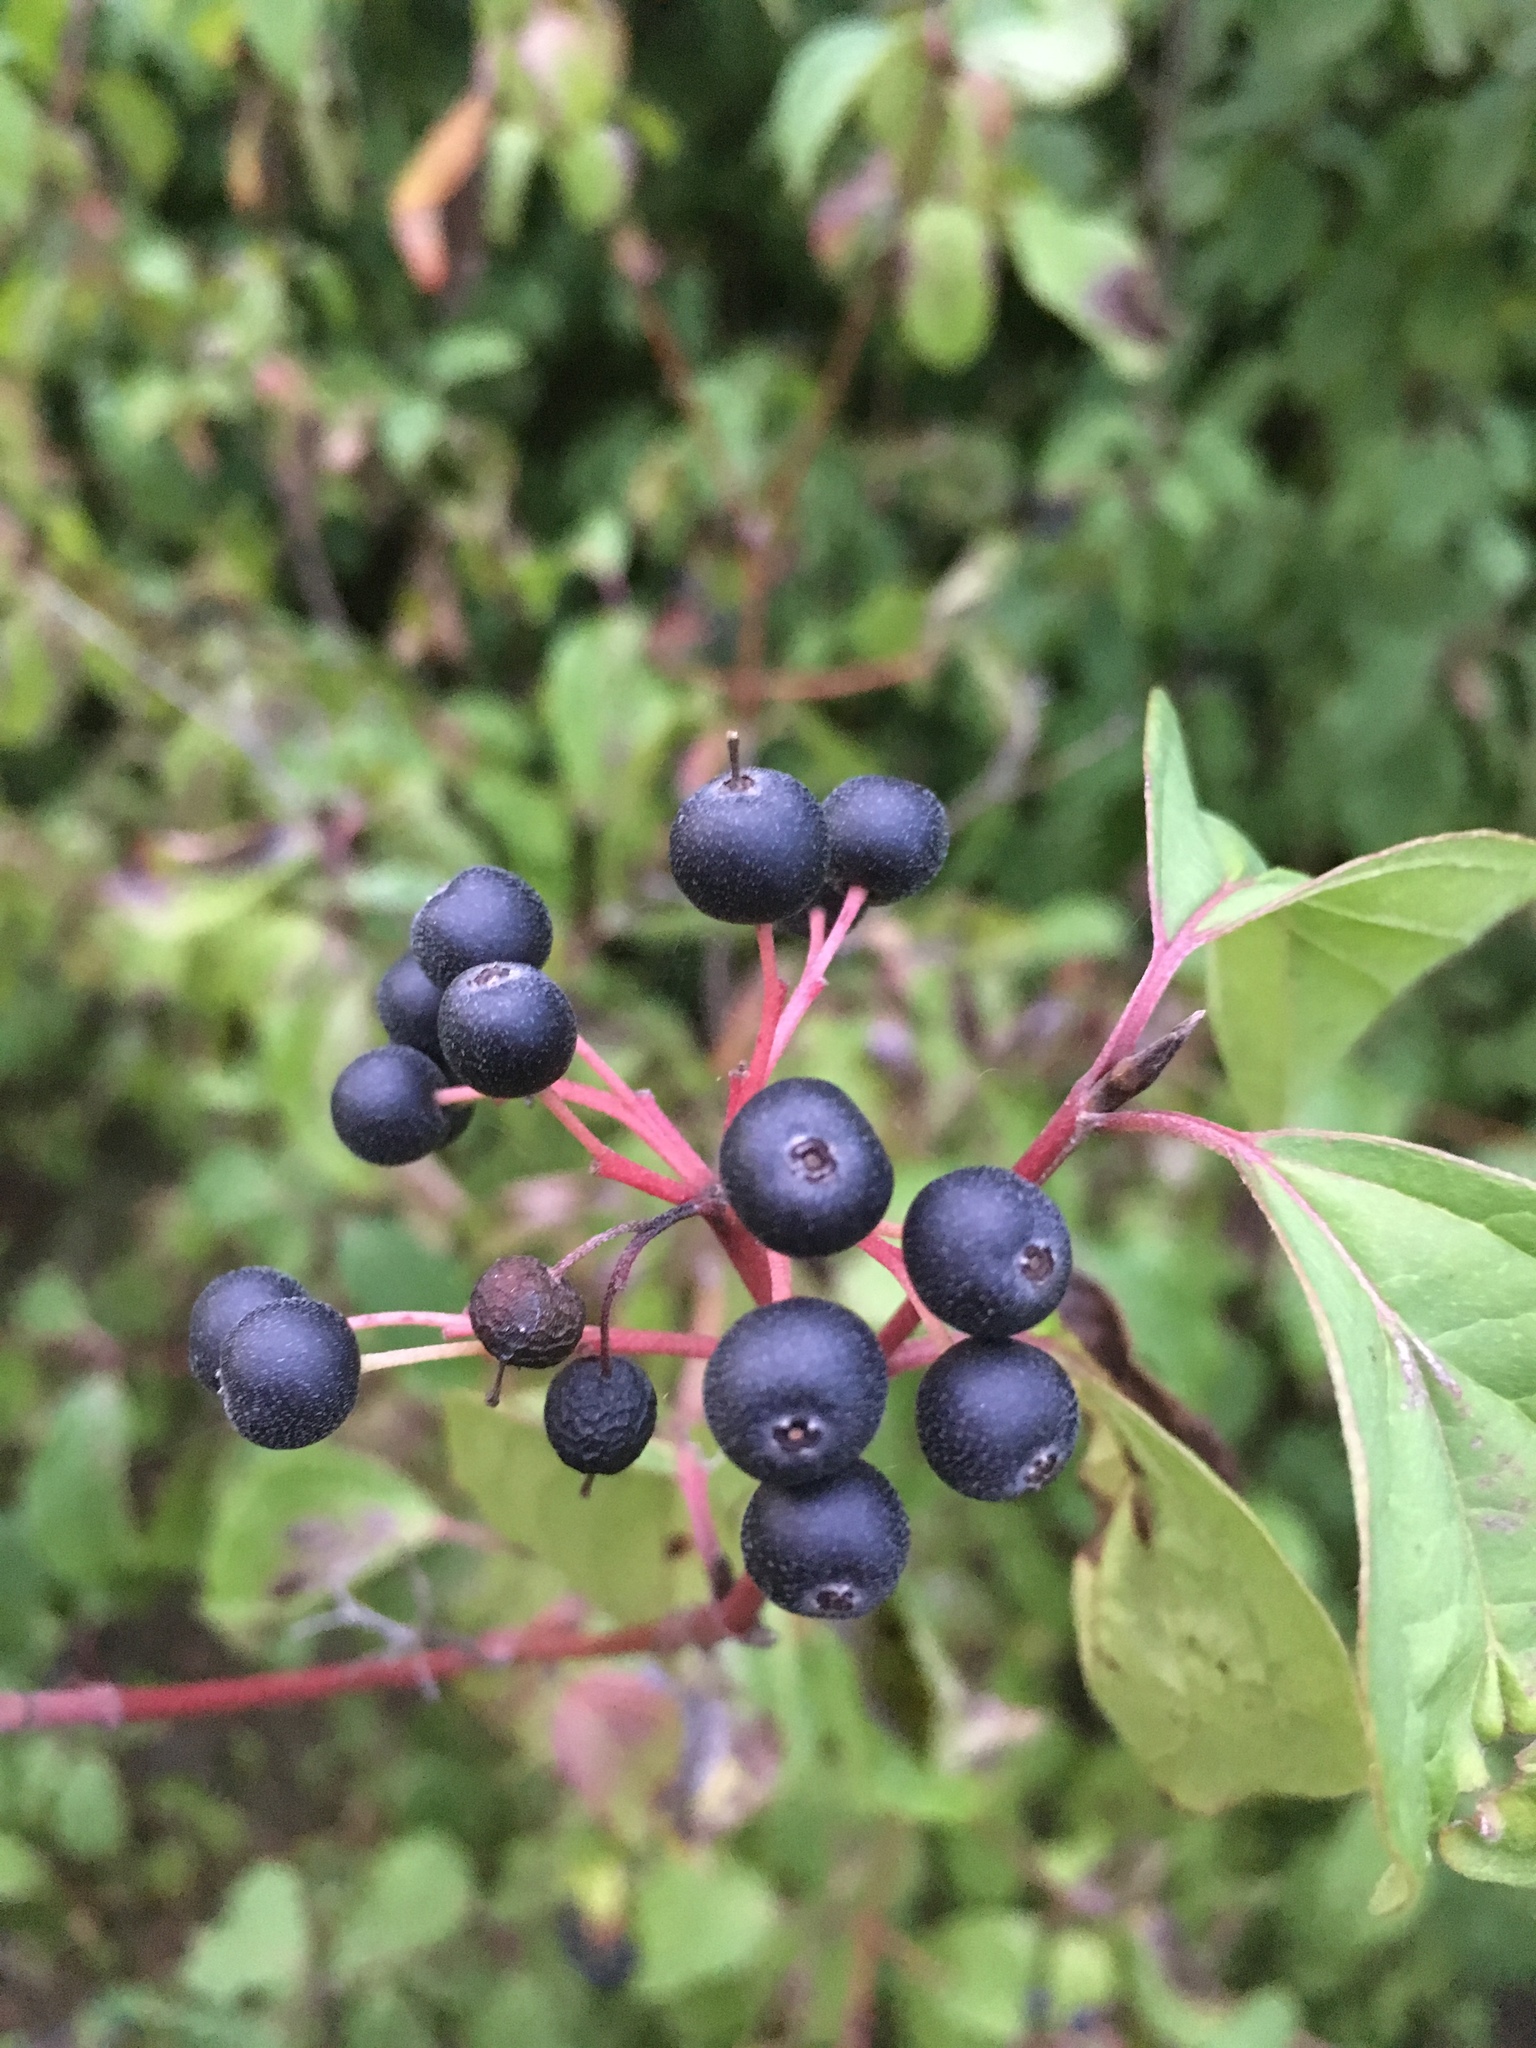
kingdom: Plantae
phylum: Tracheophyta
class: Magnoliopsida
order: Cornales
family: Cornaceae
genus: Cornus
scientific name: Cornus sanguinea
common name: Dogwood
